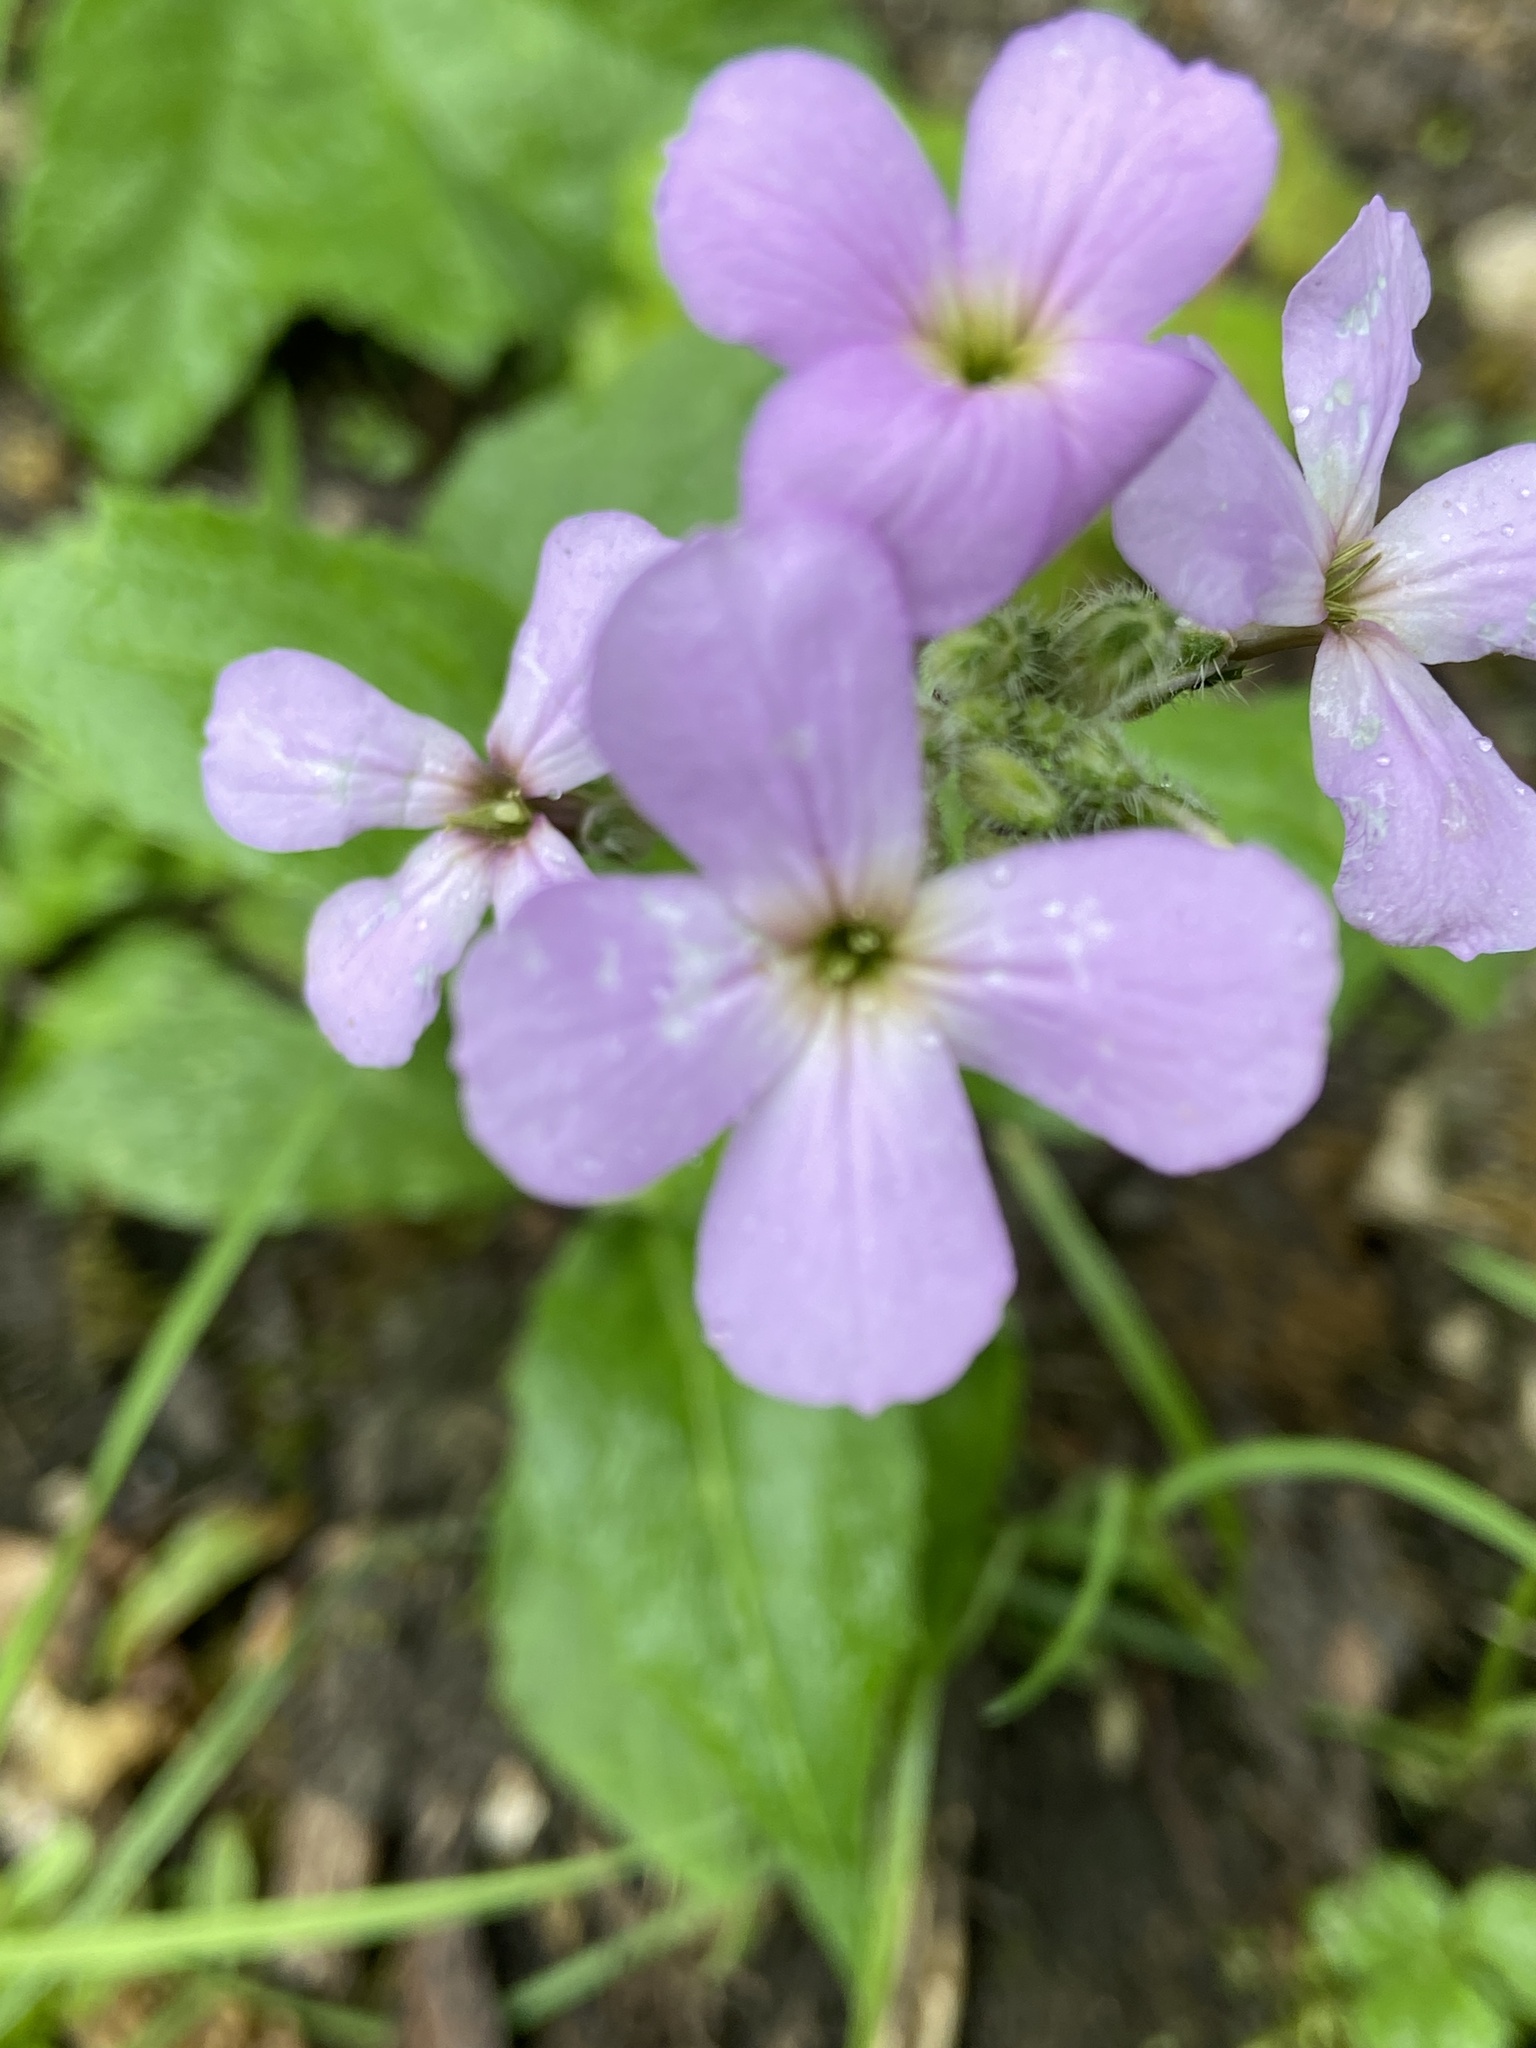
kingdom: Plantae
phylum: Tracheophyta
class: Magnoliopsida
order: Brassicales
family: Brassicaceae
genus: Hesperis
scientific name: Hesperis matronalis
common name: Dame's-violet
